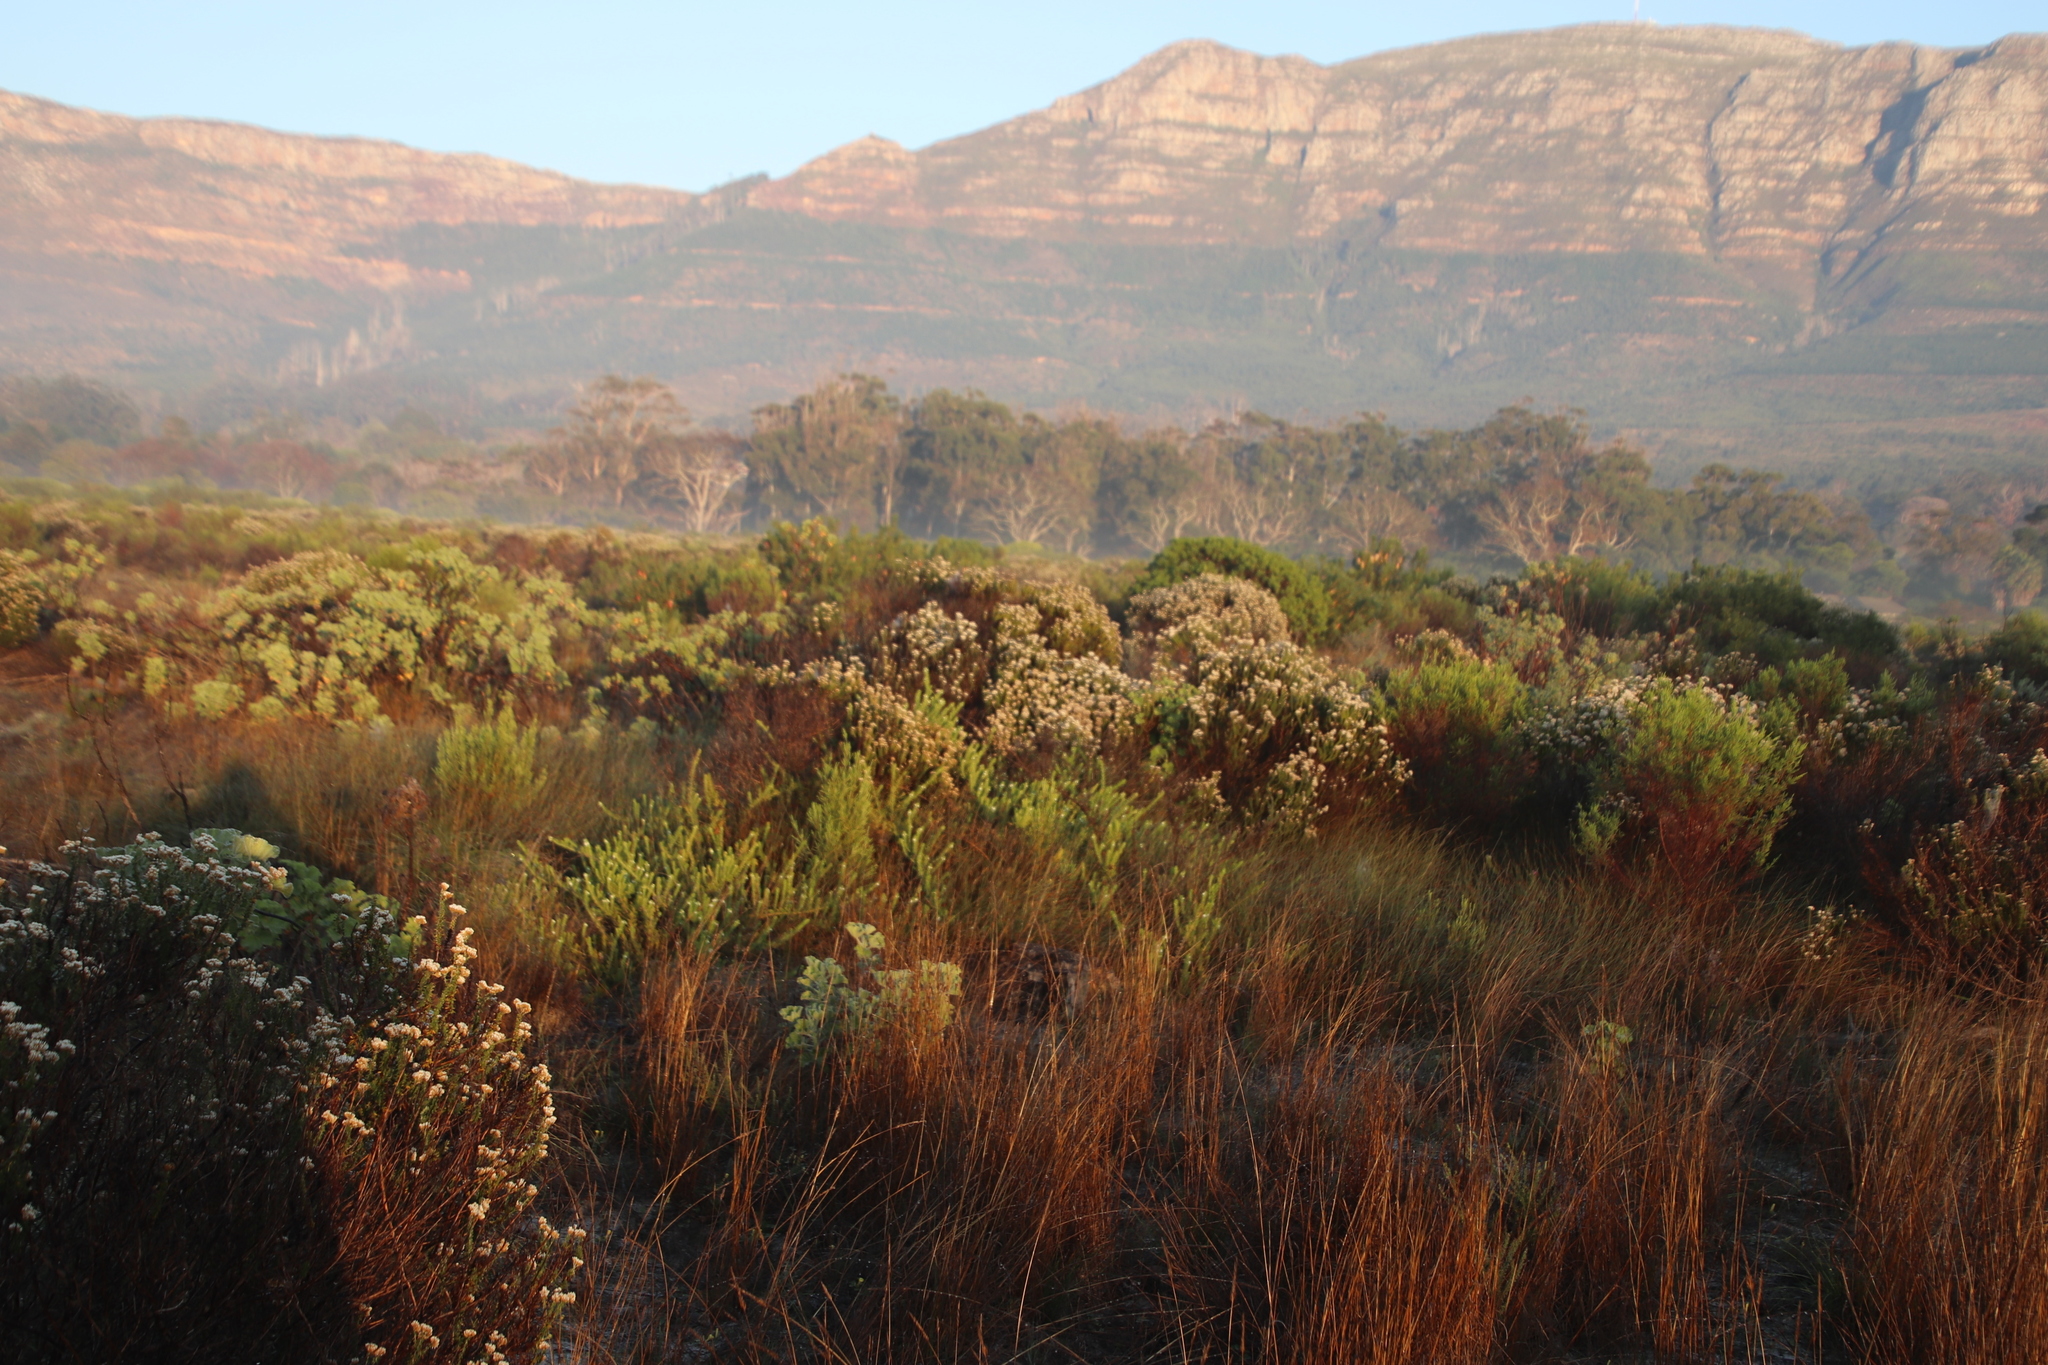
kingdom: Plantae
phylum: Tracheophyta
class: Magnoliopsida
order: Asterales
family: Asteraceae
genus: Metalasia
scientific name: Metalasia densa
